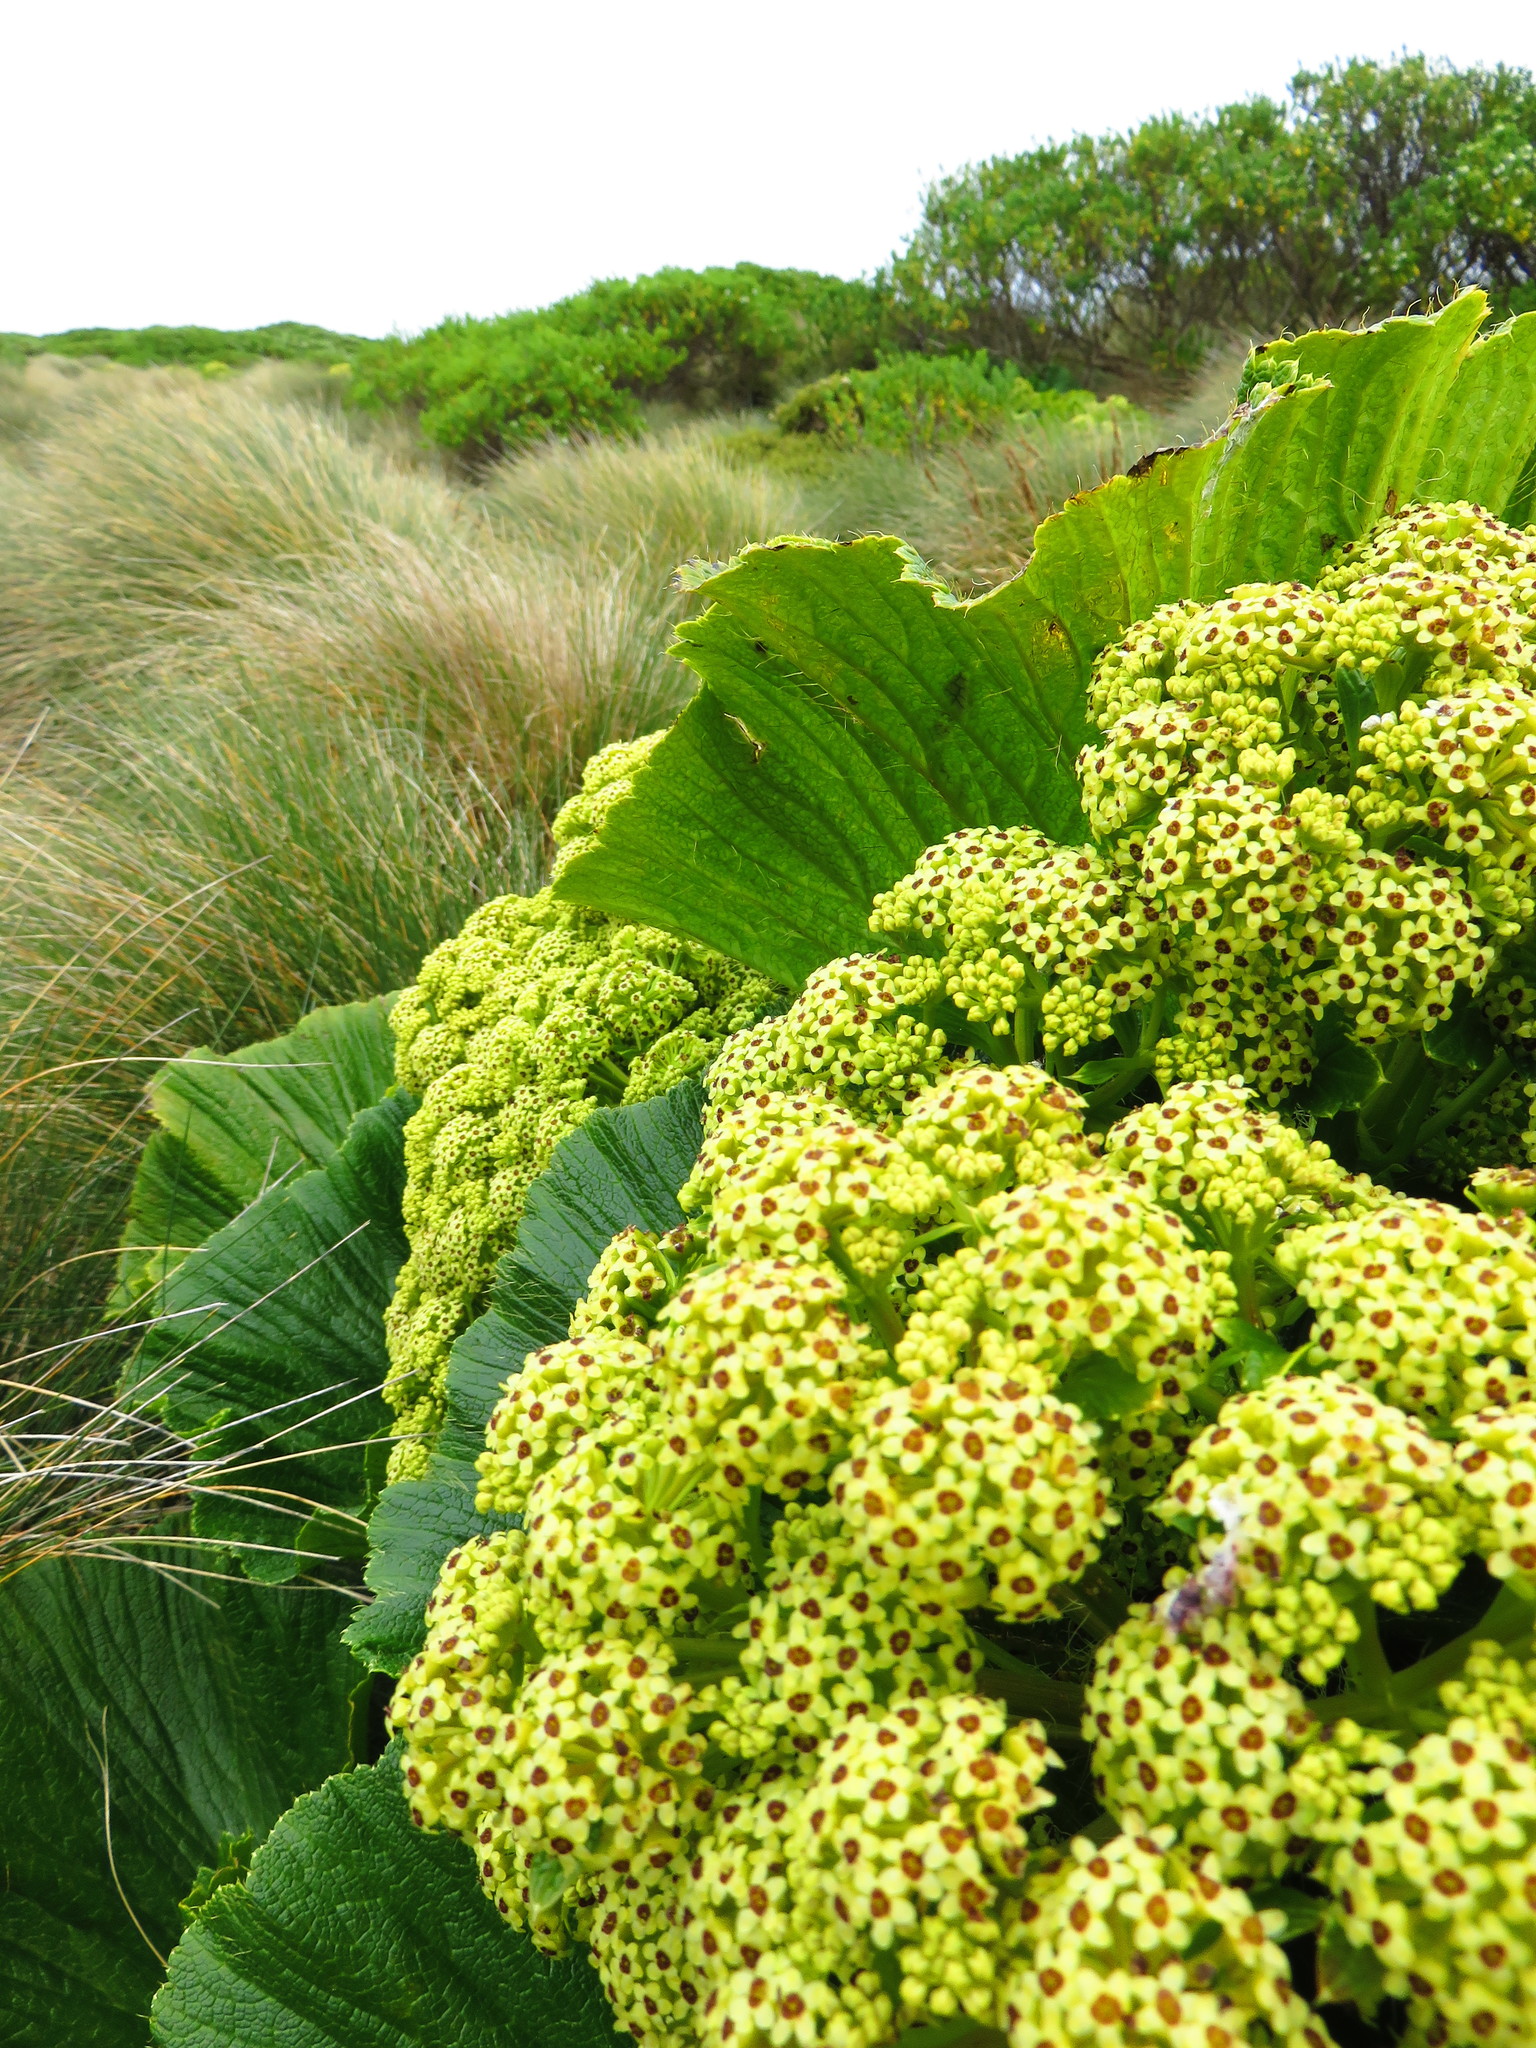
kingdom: Plantae
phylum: Tracheophyta
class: Magnoliopsida
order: Apiales
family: Apiaceae
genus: Azorella
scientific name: Azorella polaris
